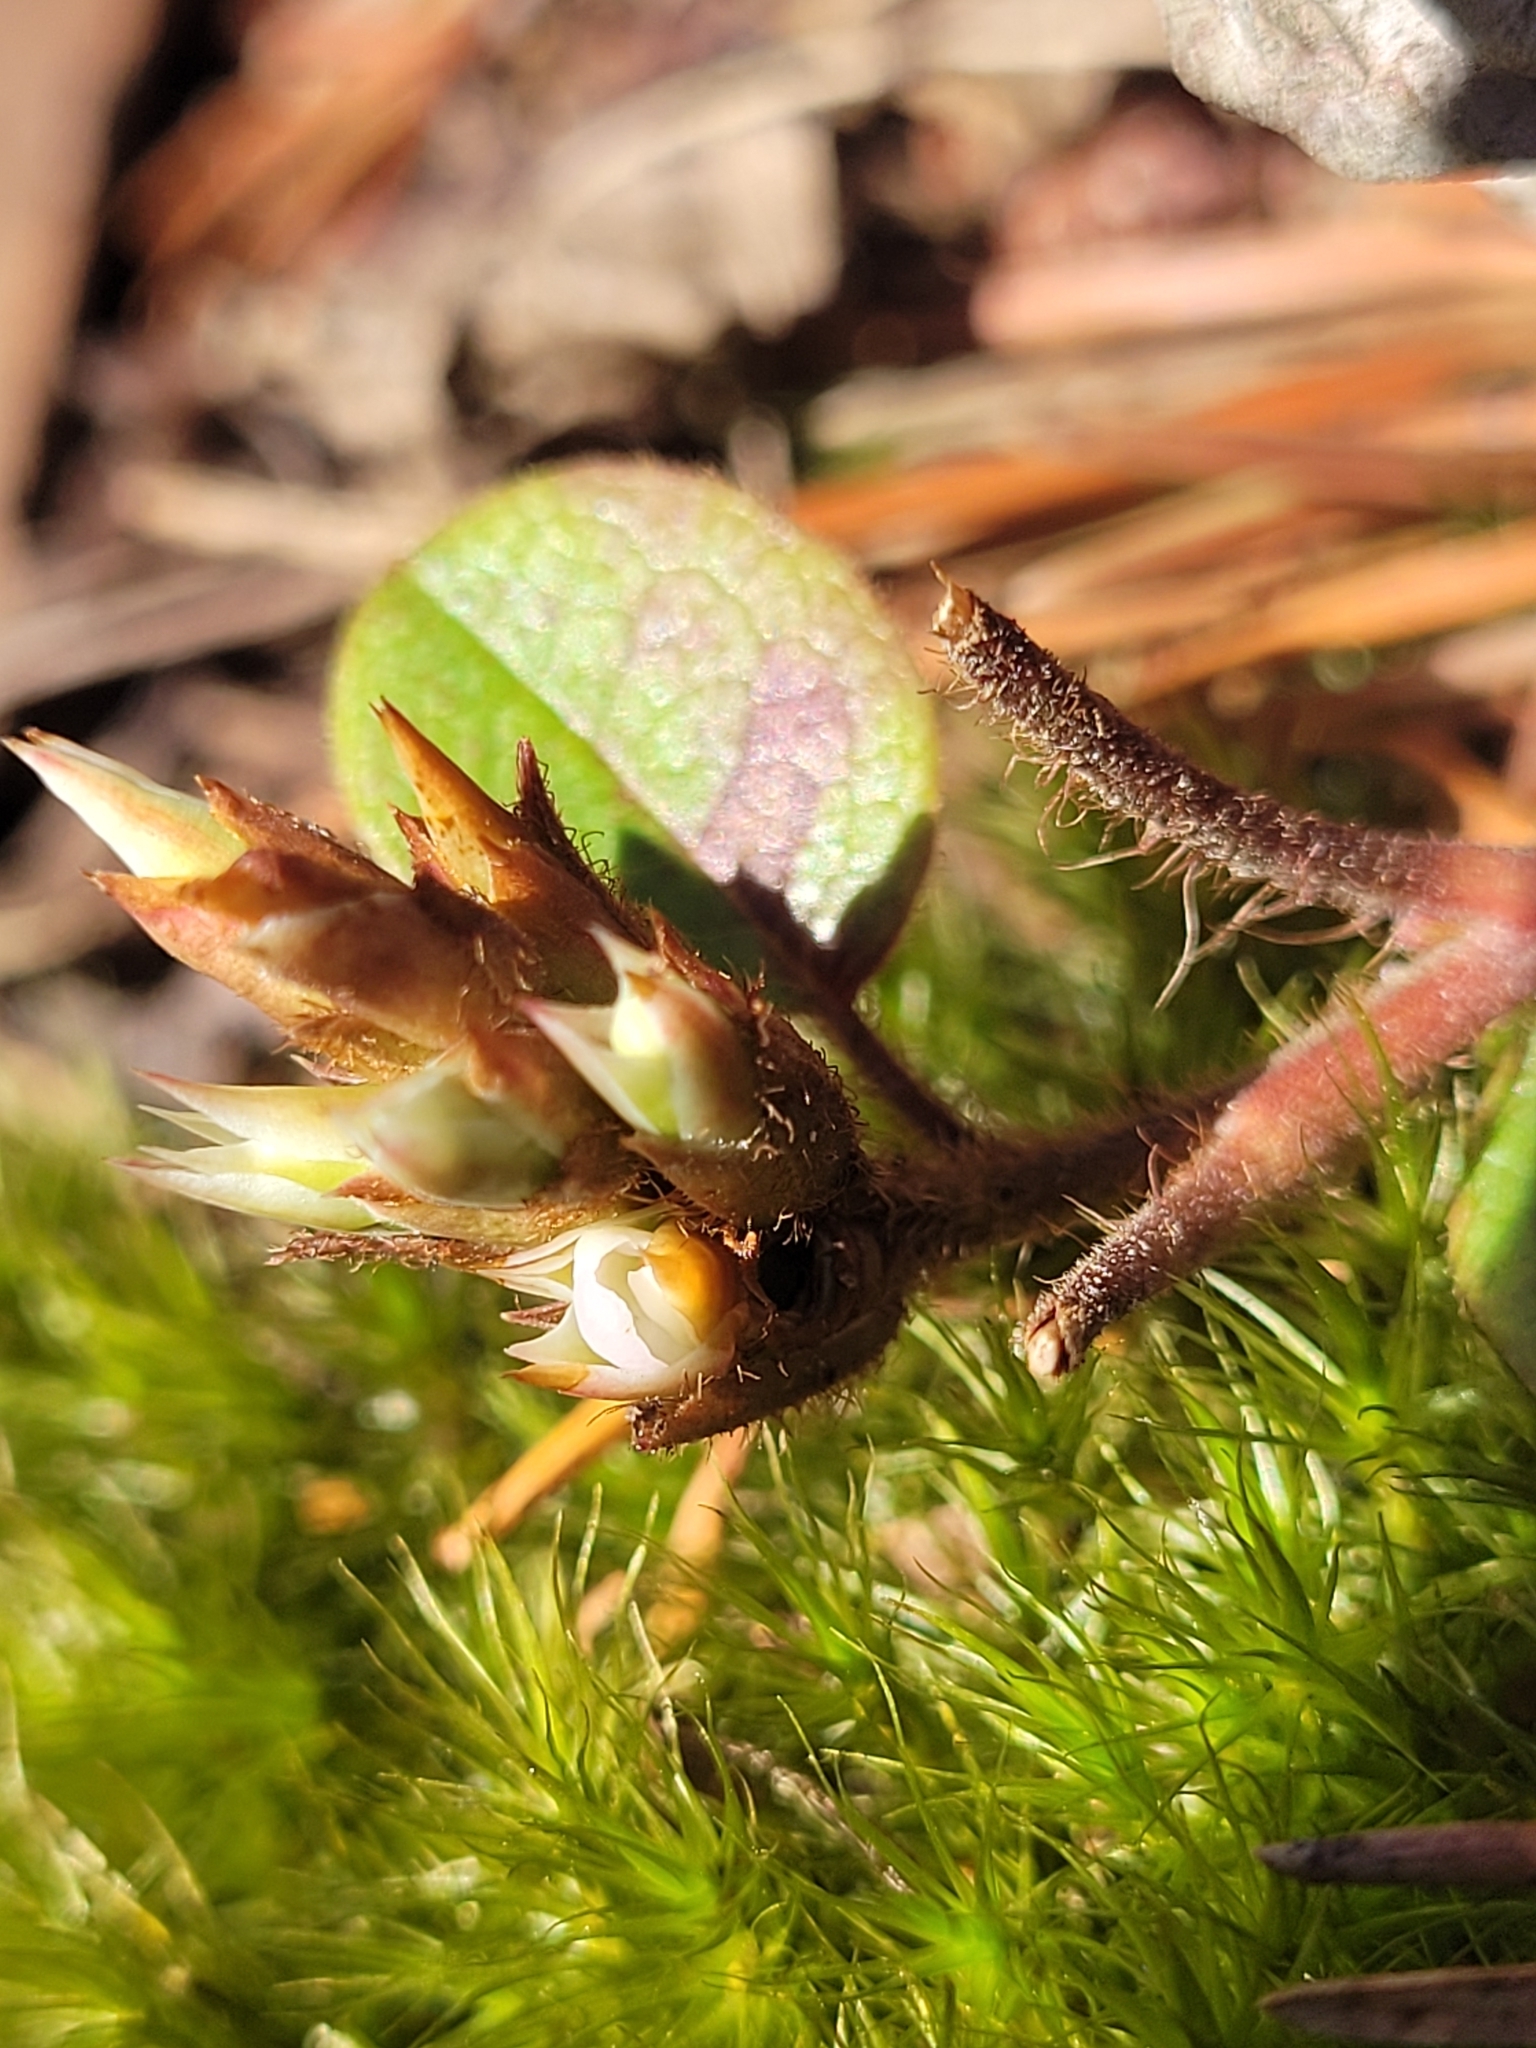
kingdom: Plantae
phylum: Tracheophyta
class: Magnoliopsida
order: Ericales
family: Ericaceae
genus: Epigaea
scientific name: Epigaea repens
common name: Gravelroot
